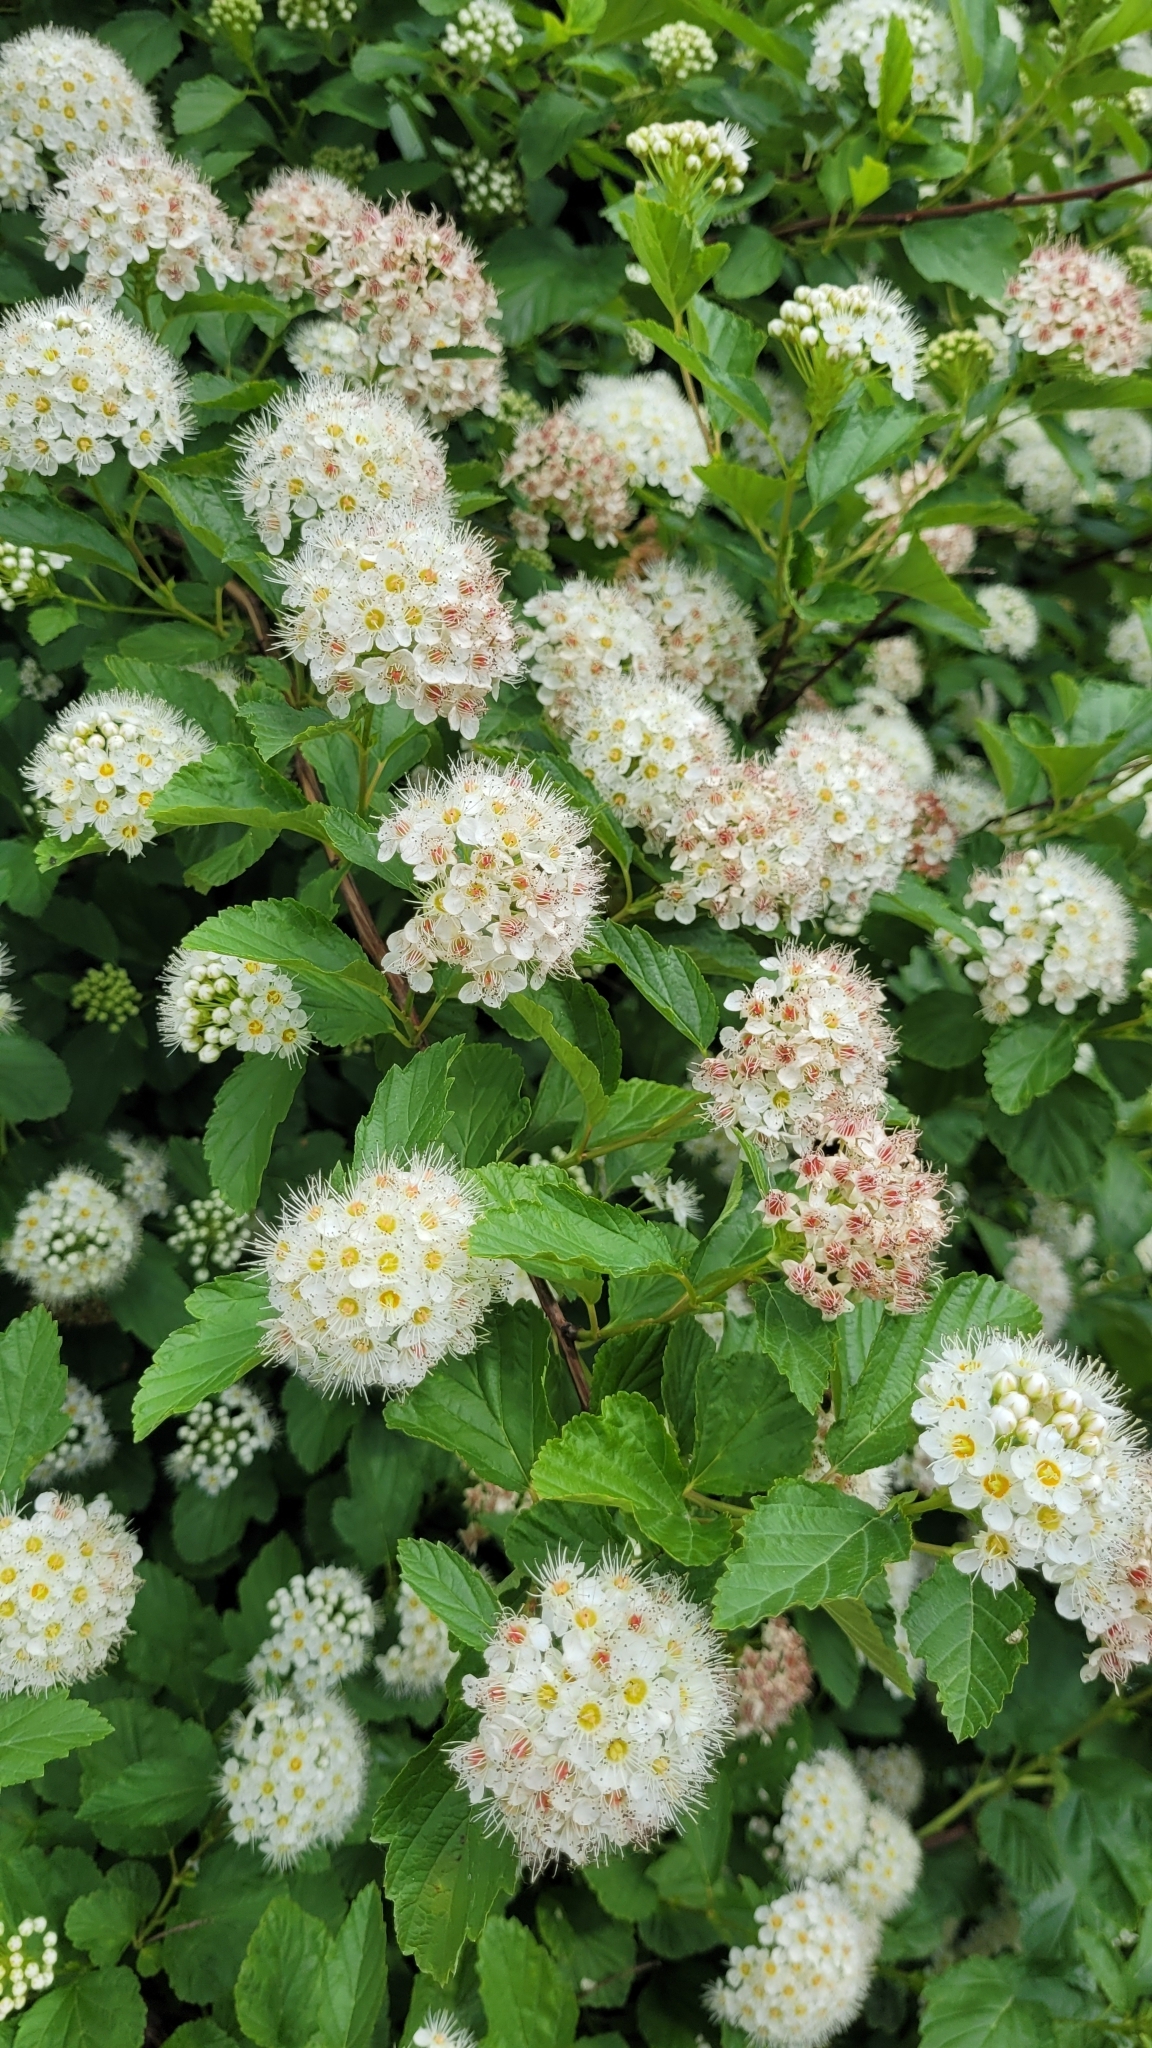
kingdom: Plantae
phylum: Tracheophyta
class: Magnoliopsida
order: Rosales
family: Rosaceae
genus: Physocarpus
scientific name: Physocarpus opulifolius
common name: Ninebark
